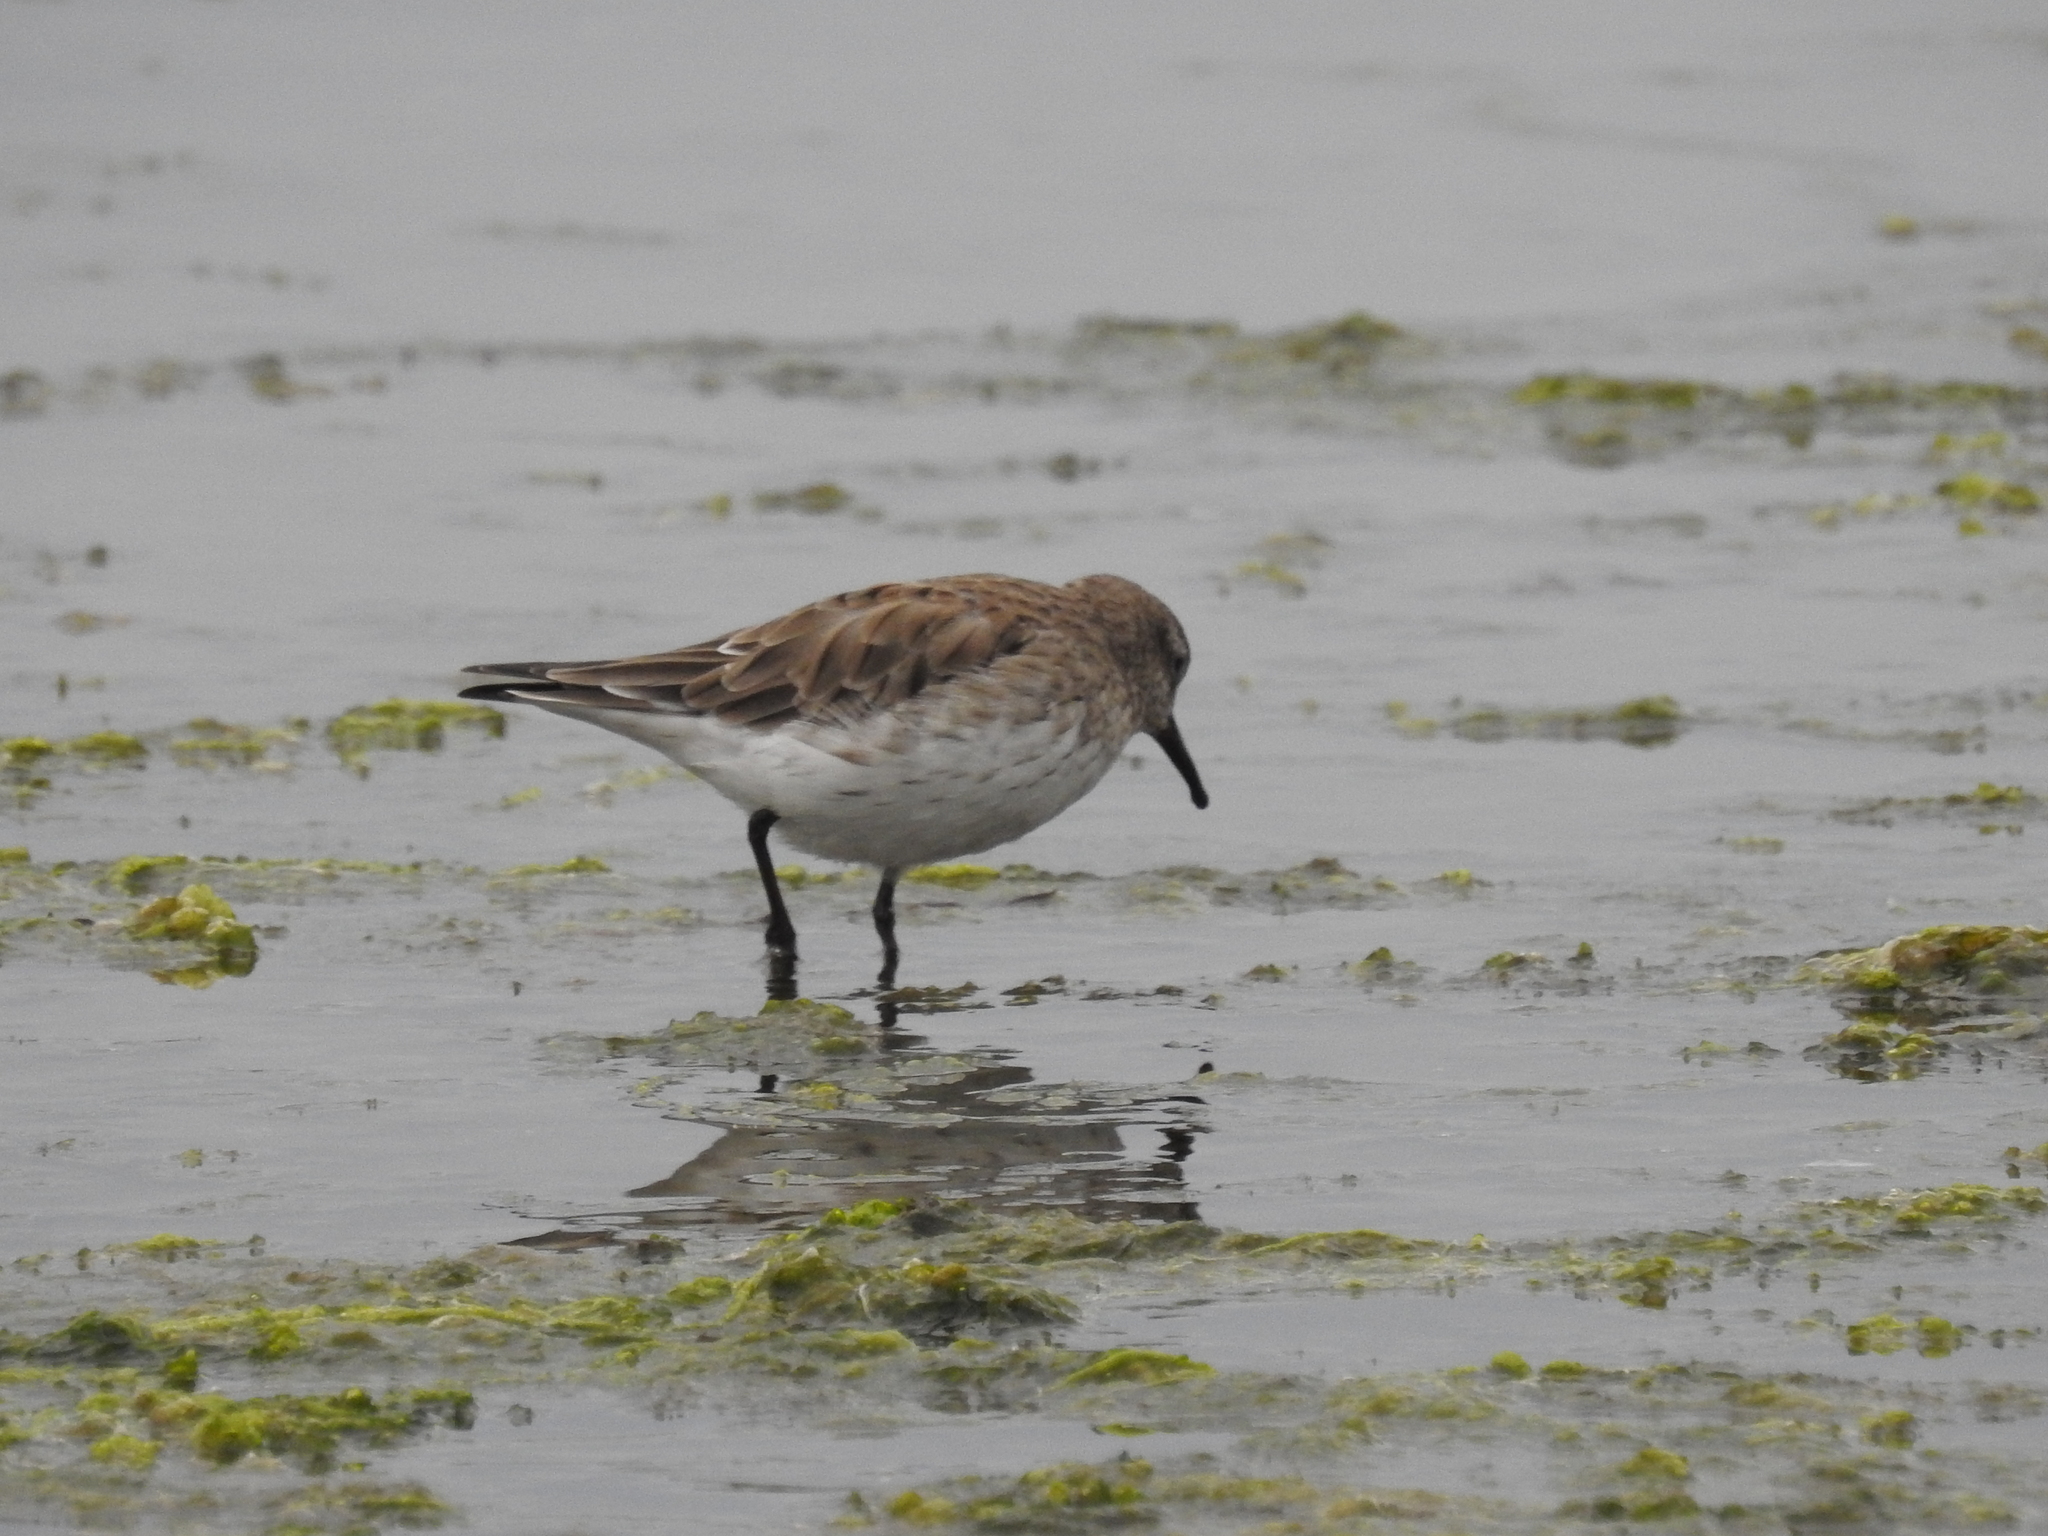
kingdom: Animalia
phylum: Chordata
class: Aves
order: Charadriiformes
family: Scolopacidae
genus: Calidris
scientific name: Calidris fuscicollis
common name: White-rumped sandpiper
